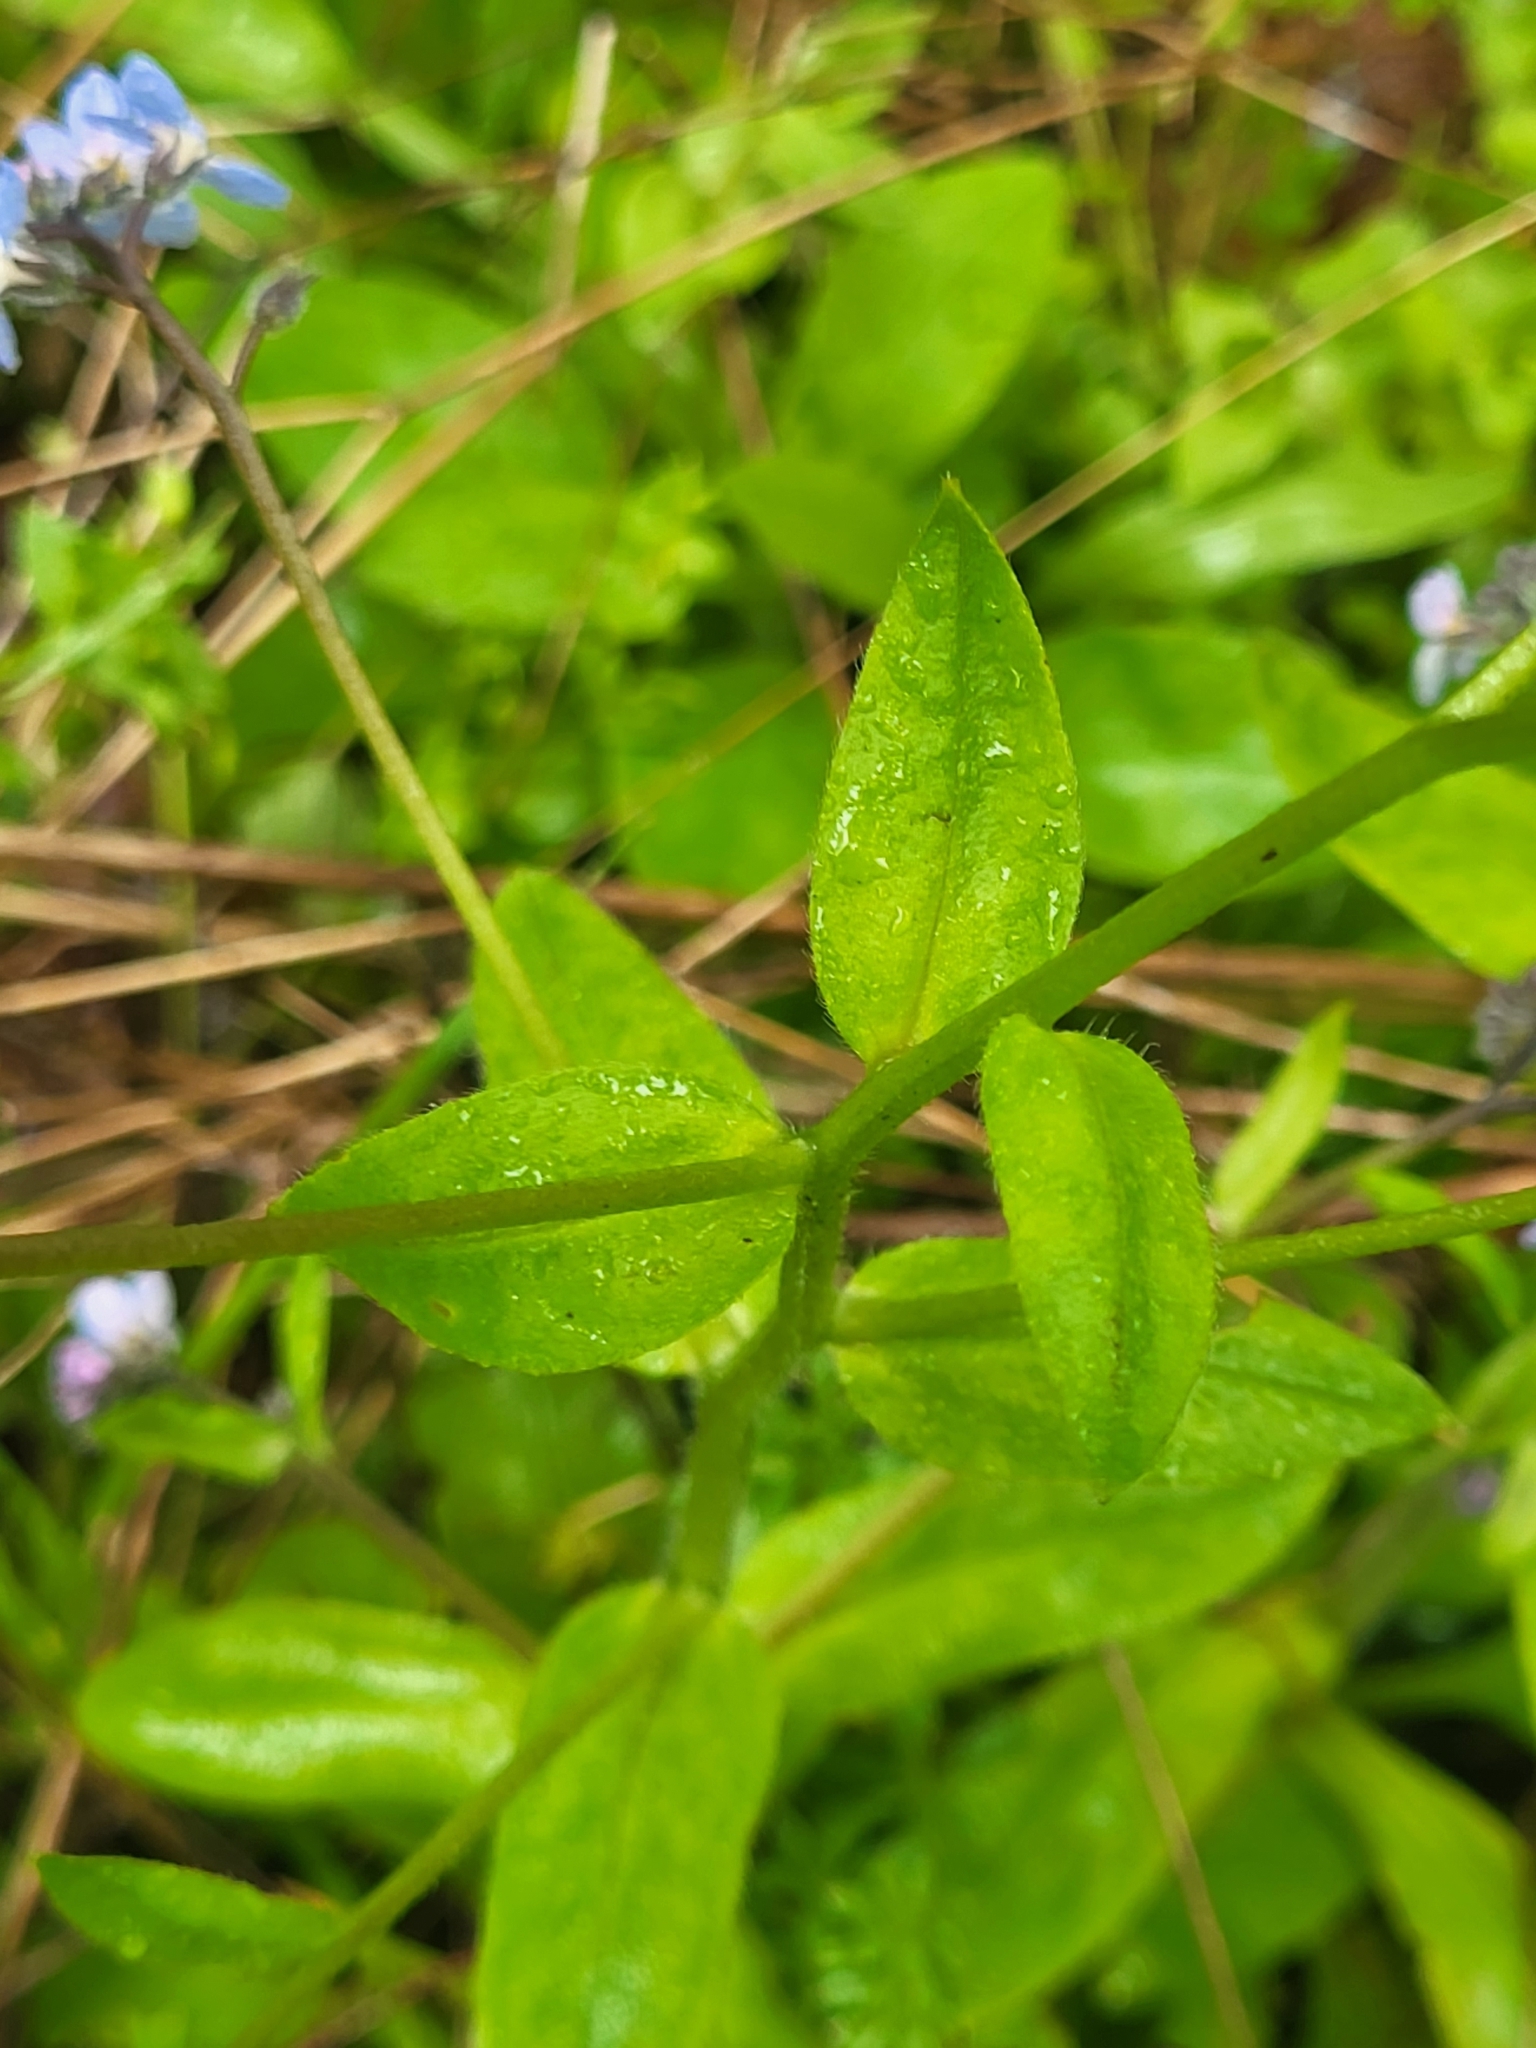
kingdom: Plantae
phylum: Tracheophyta
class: Magnoliopsida
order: Boraginales
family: Boraginaceae
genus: Myosotis
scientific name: Myosotis latifolia
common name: Broadleaf forget-me-not
